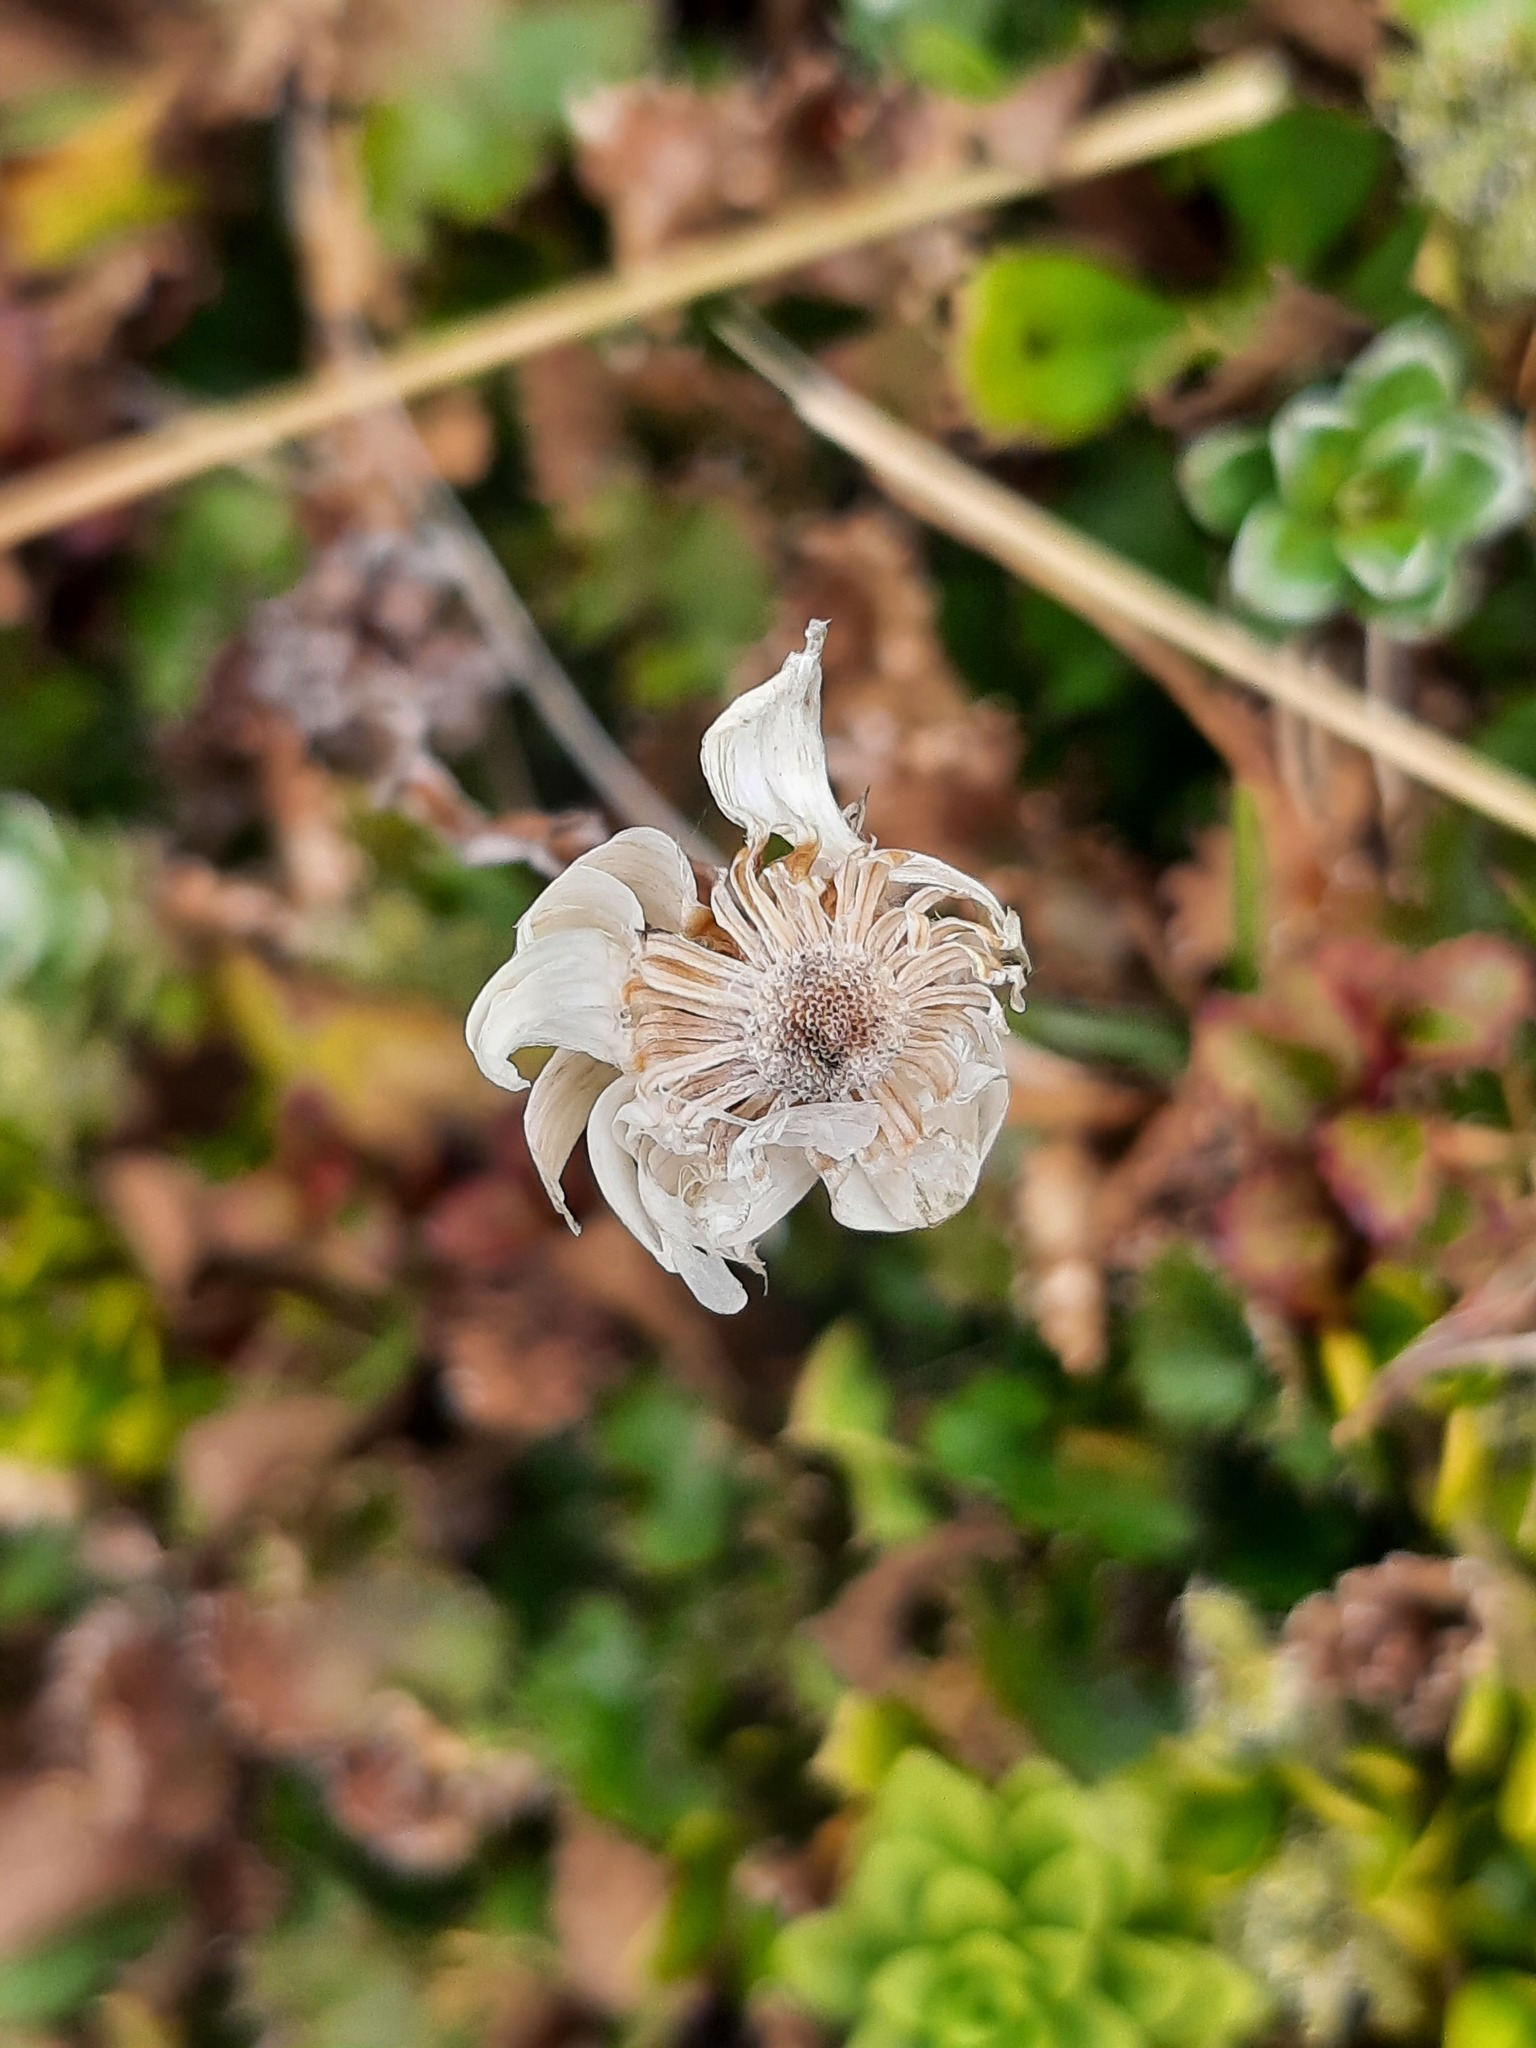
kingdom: Plantae
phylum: Tracheophyta
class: Magnoliopsida
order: Asterales
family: Asteraceae
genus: Anaphalioides
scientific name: Anaphalioides alpina
